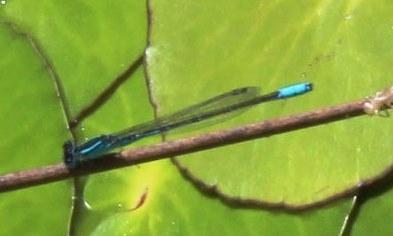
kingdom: Animalia
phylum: Arthropoda
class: Insecta
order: Odonata
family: Coenagrionidae
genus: Africallagma
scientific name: Africallagma glaucum
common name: Swamp bluet
